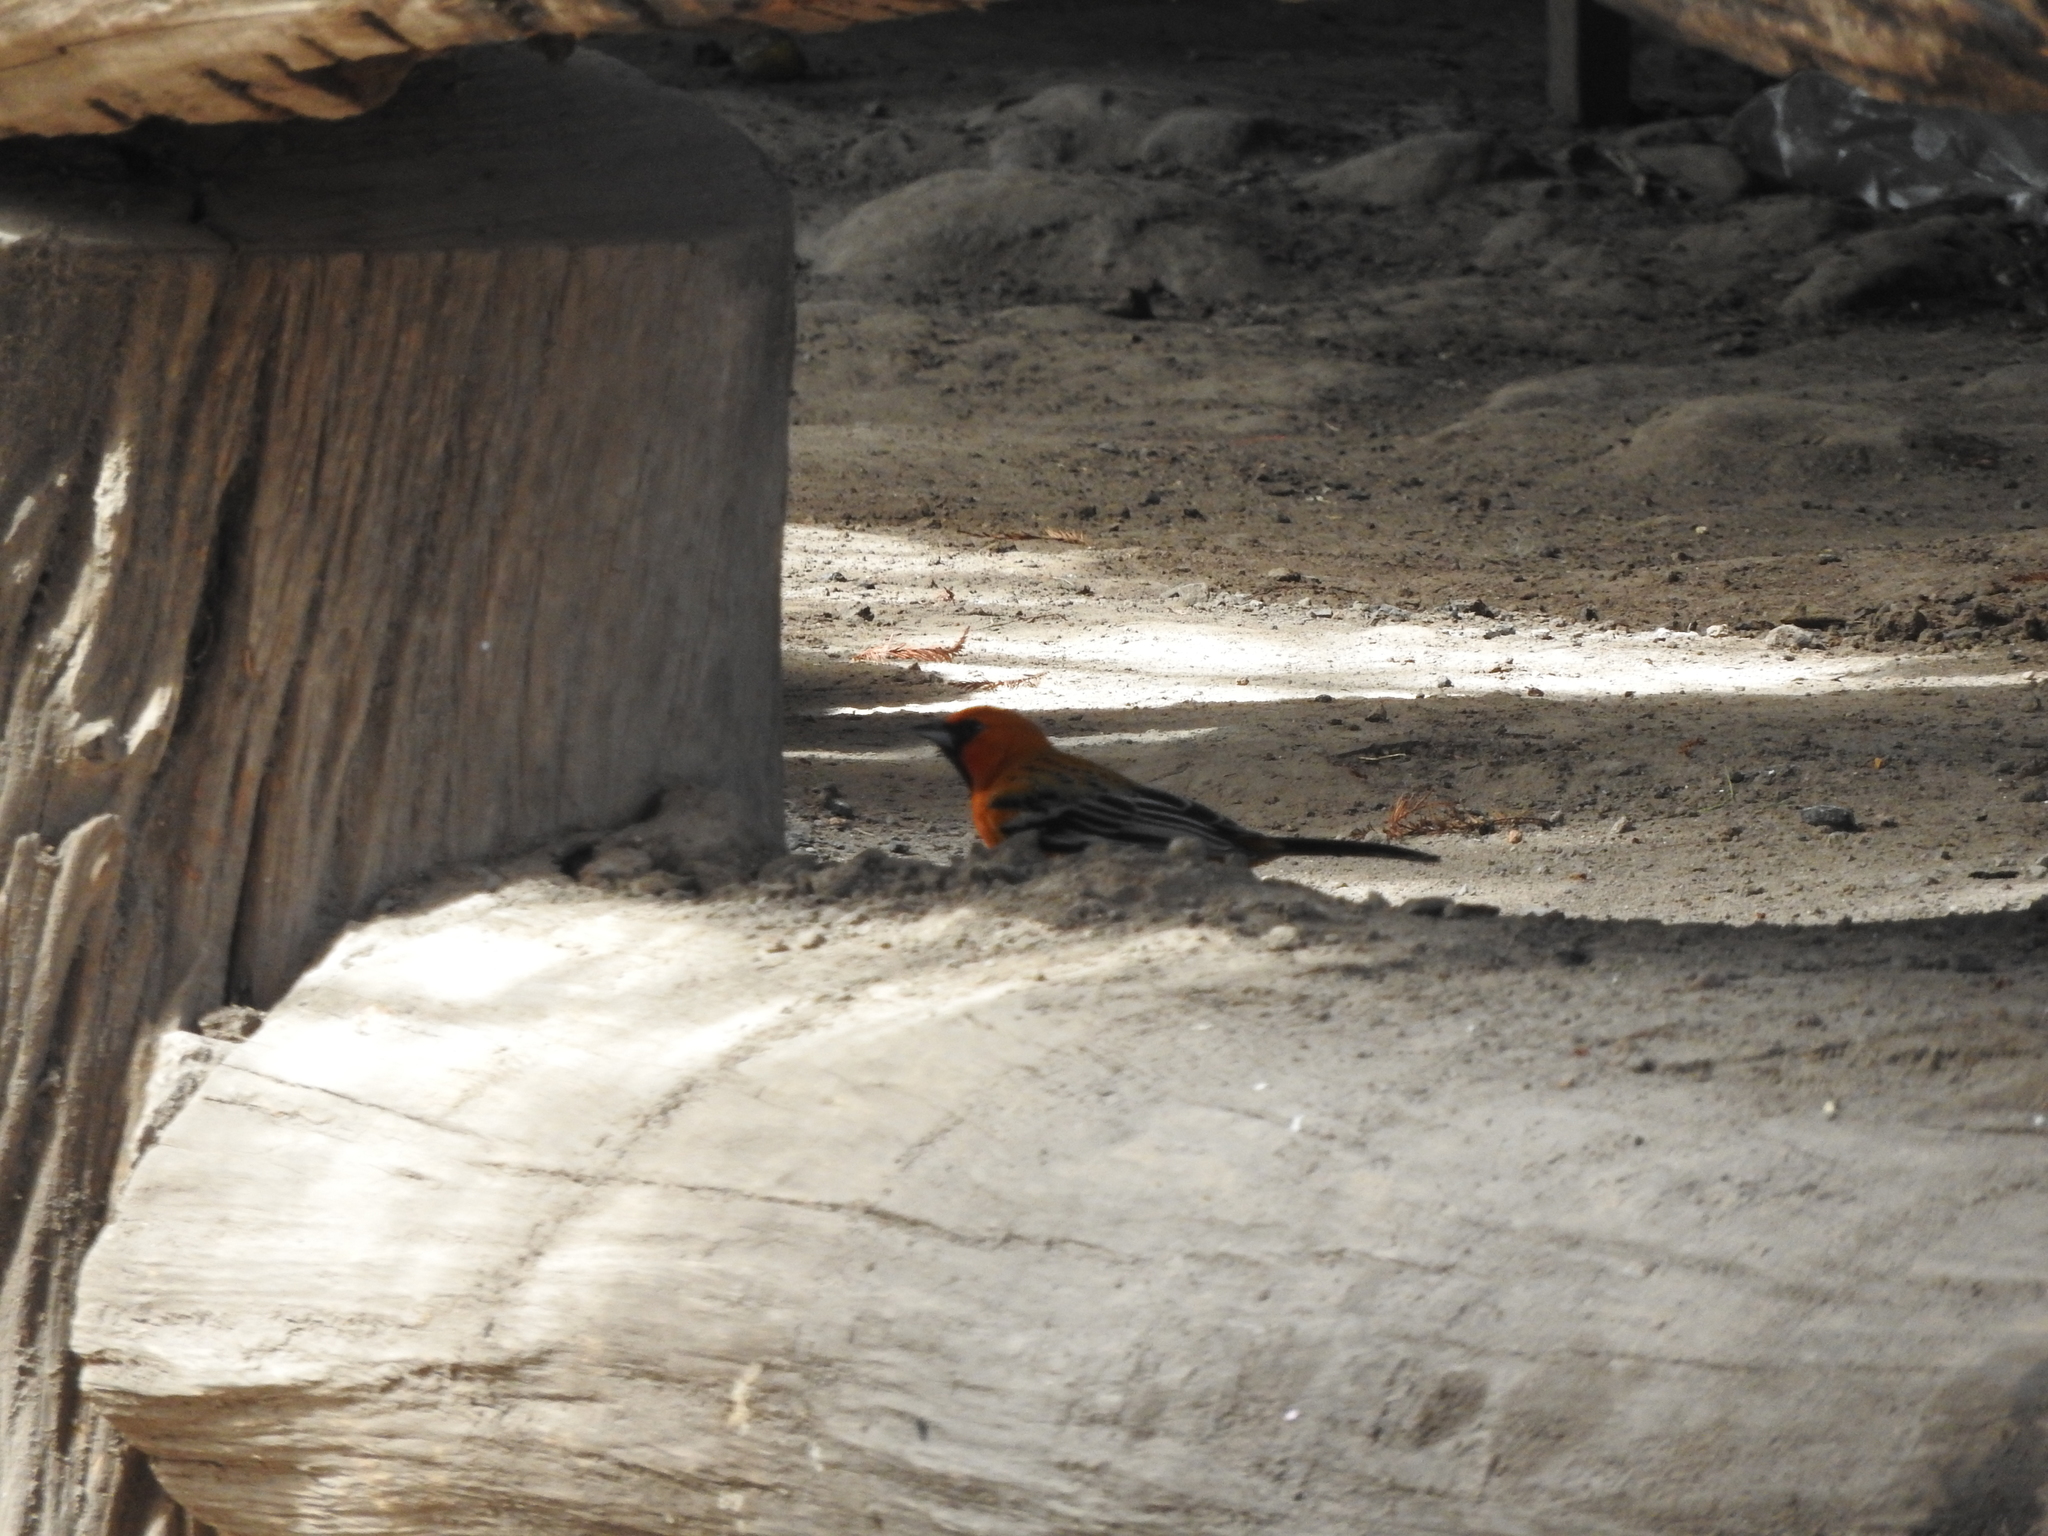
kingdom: Animalia
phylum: Chordata
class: Aves
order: Passeriformes
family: Icteridae
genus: Icterus
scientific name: Icterus pustulatus
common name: Streak-backed oriole
